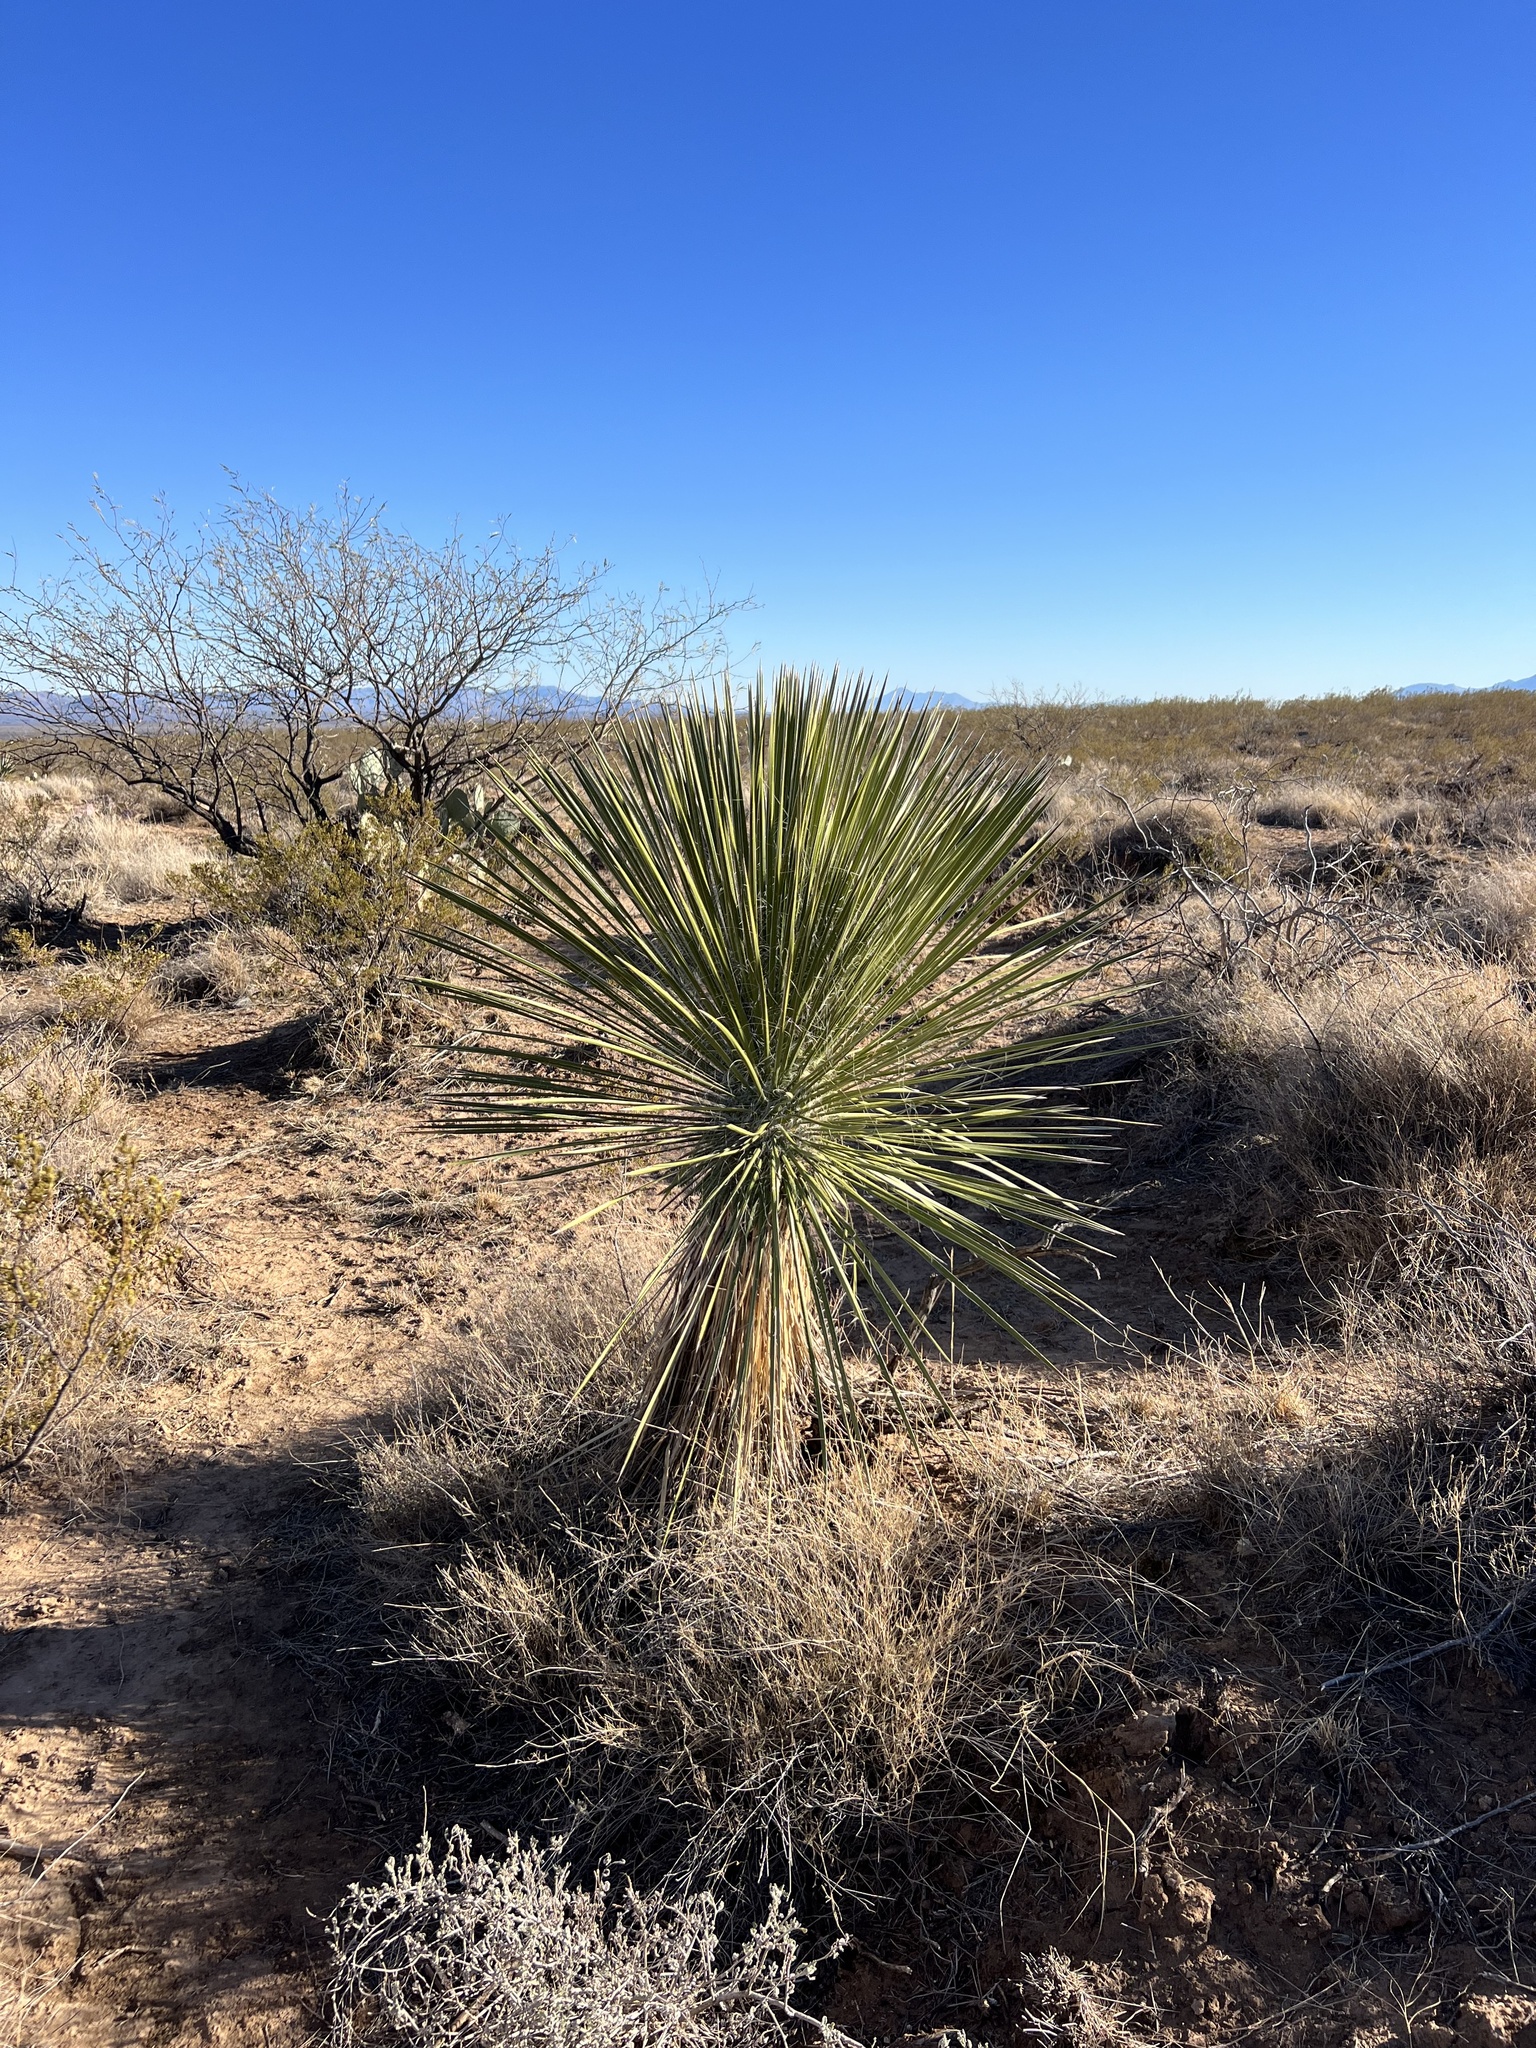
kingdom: Plantae
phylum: Tracheophyta
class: Liliopsida
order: Asparagales
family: Asparagaceae
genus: Yucca
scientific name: Yucca elata
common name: Palmella
